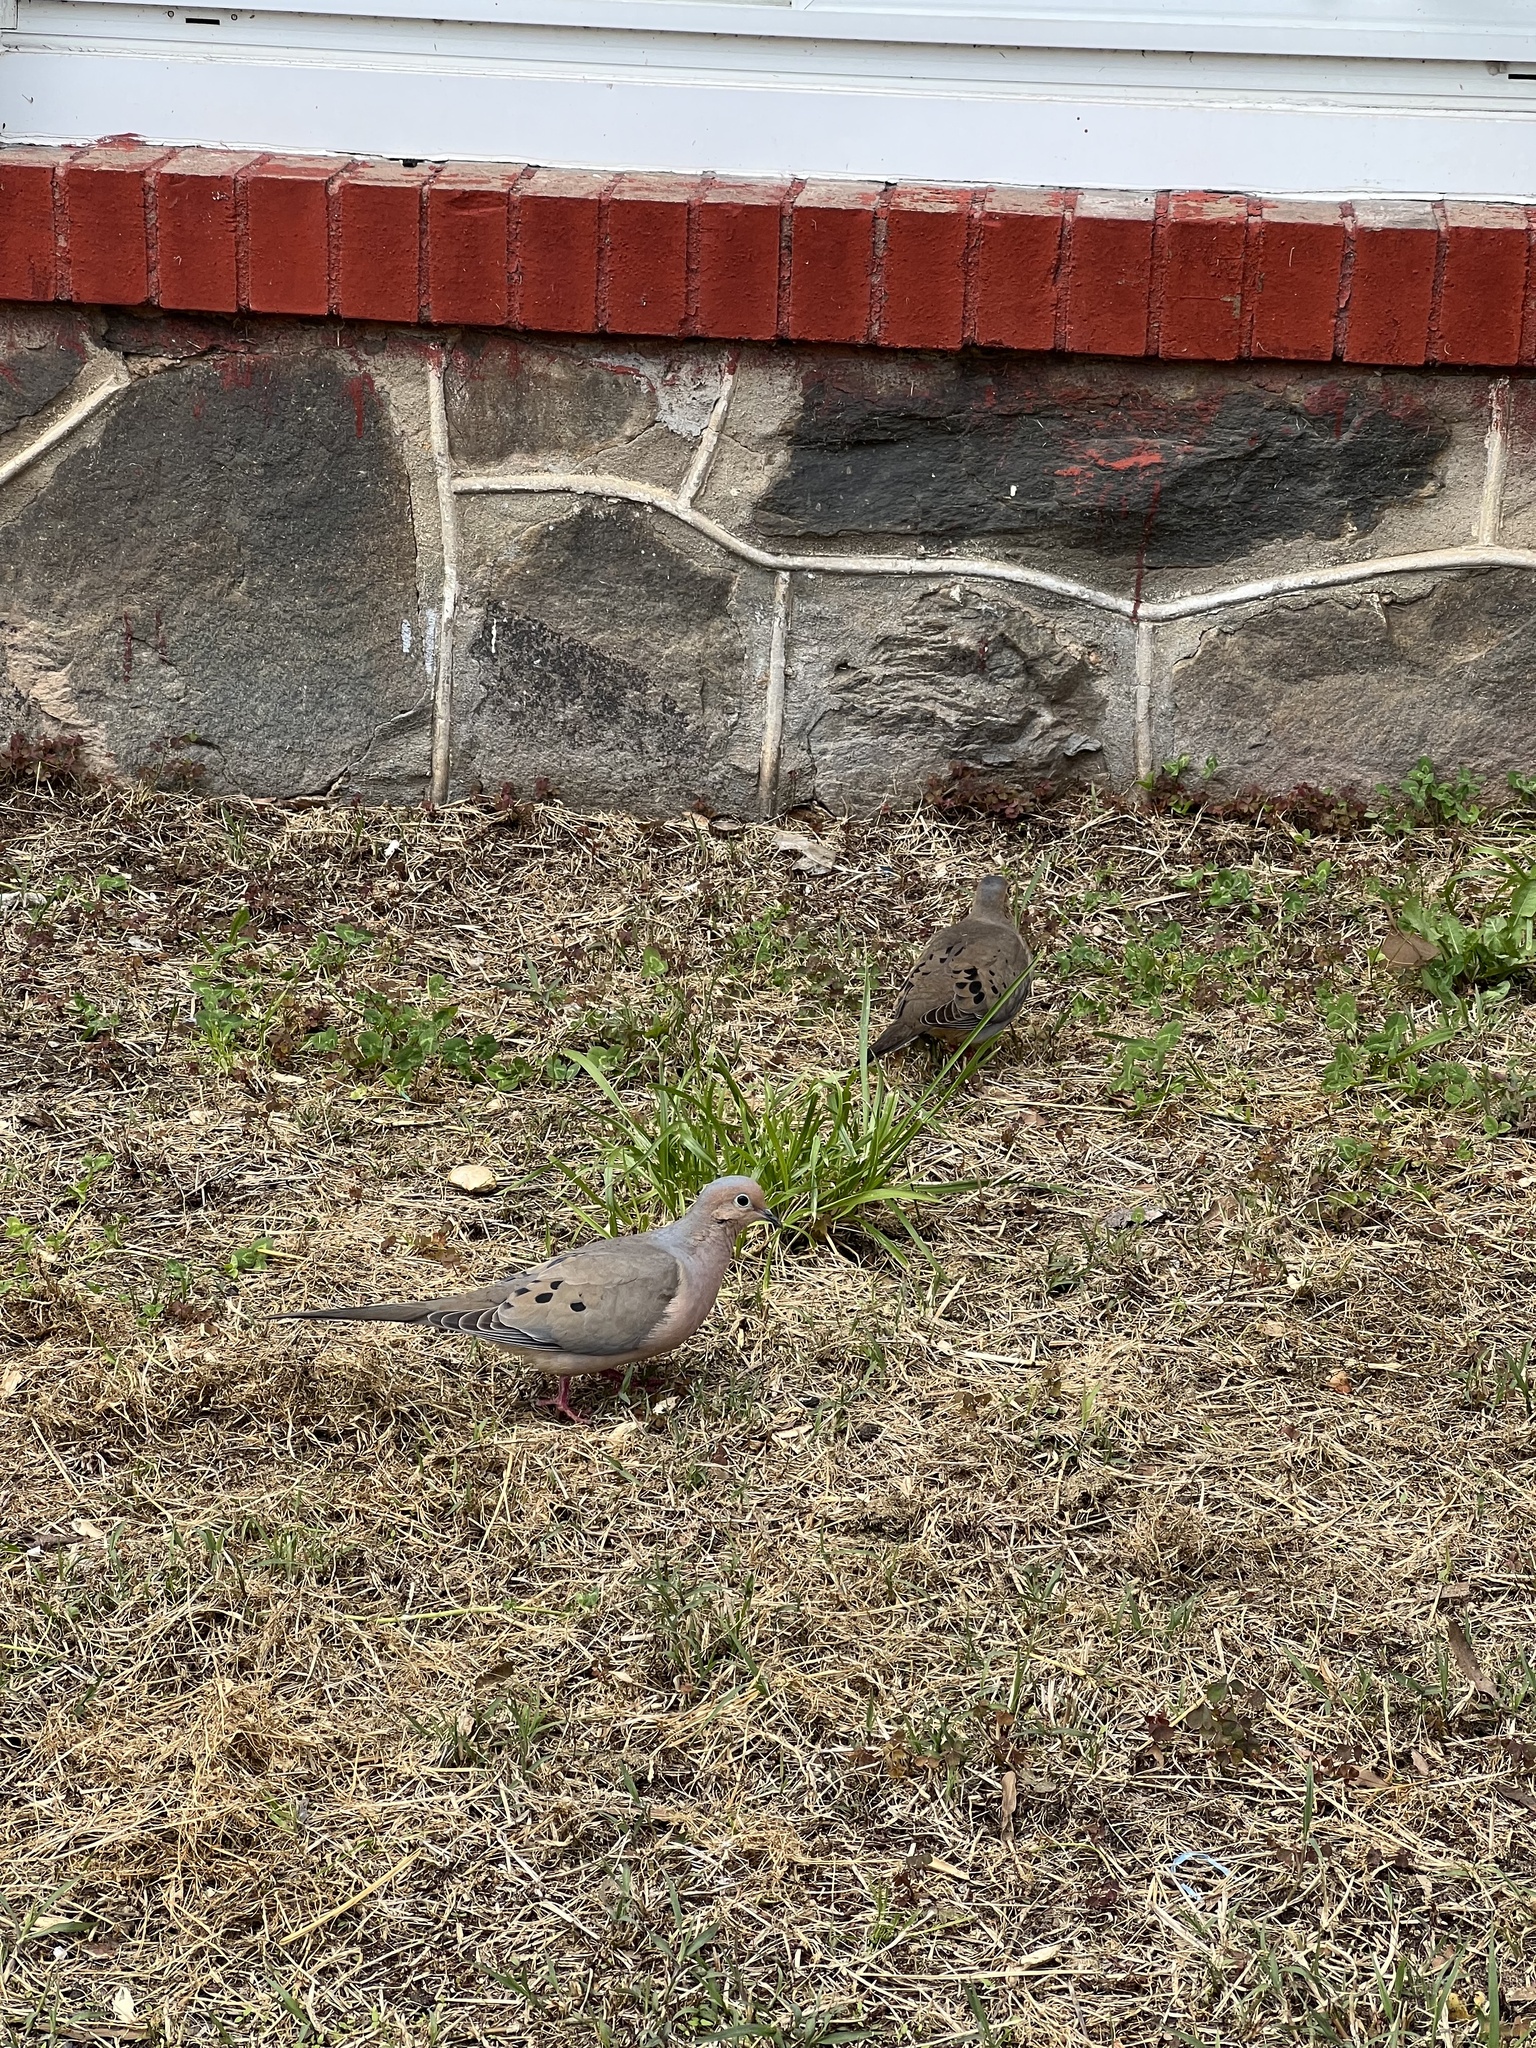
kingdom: Animalia
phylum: Chordata
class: Aves
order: Columbiformes
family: Columbidae
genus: Zenaida
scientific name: Zenaida macroura
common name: Mourning dove
